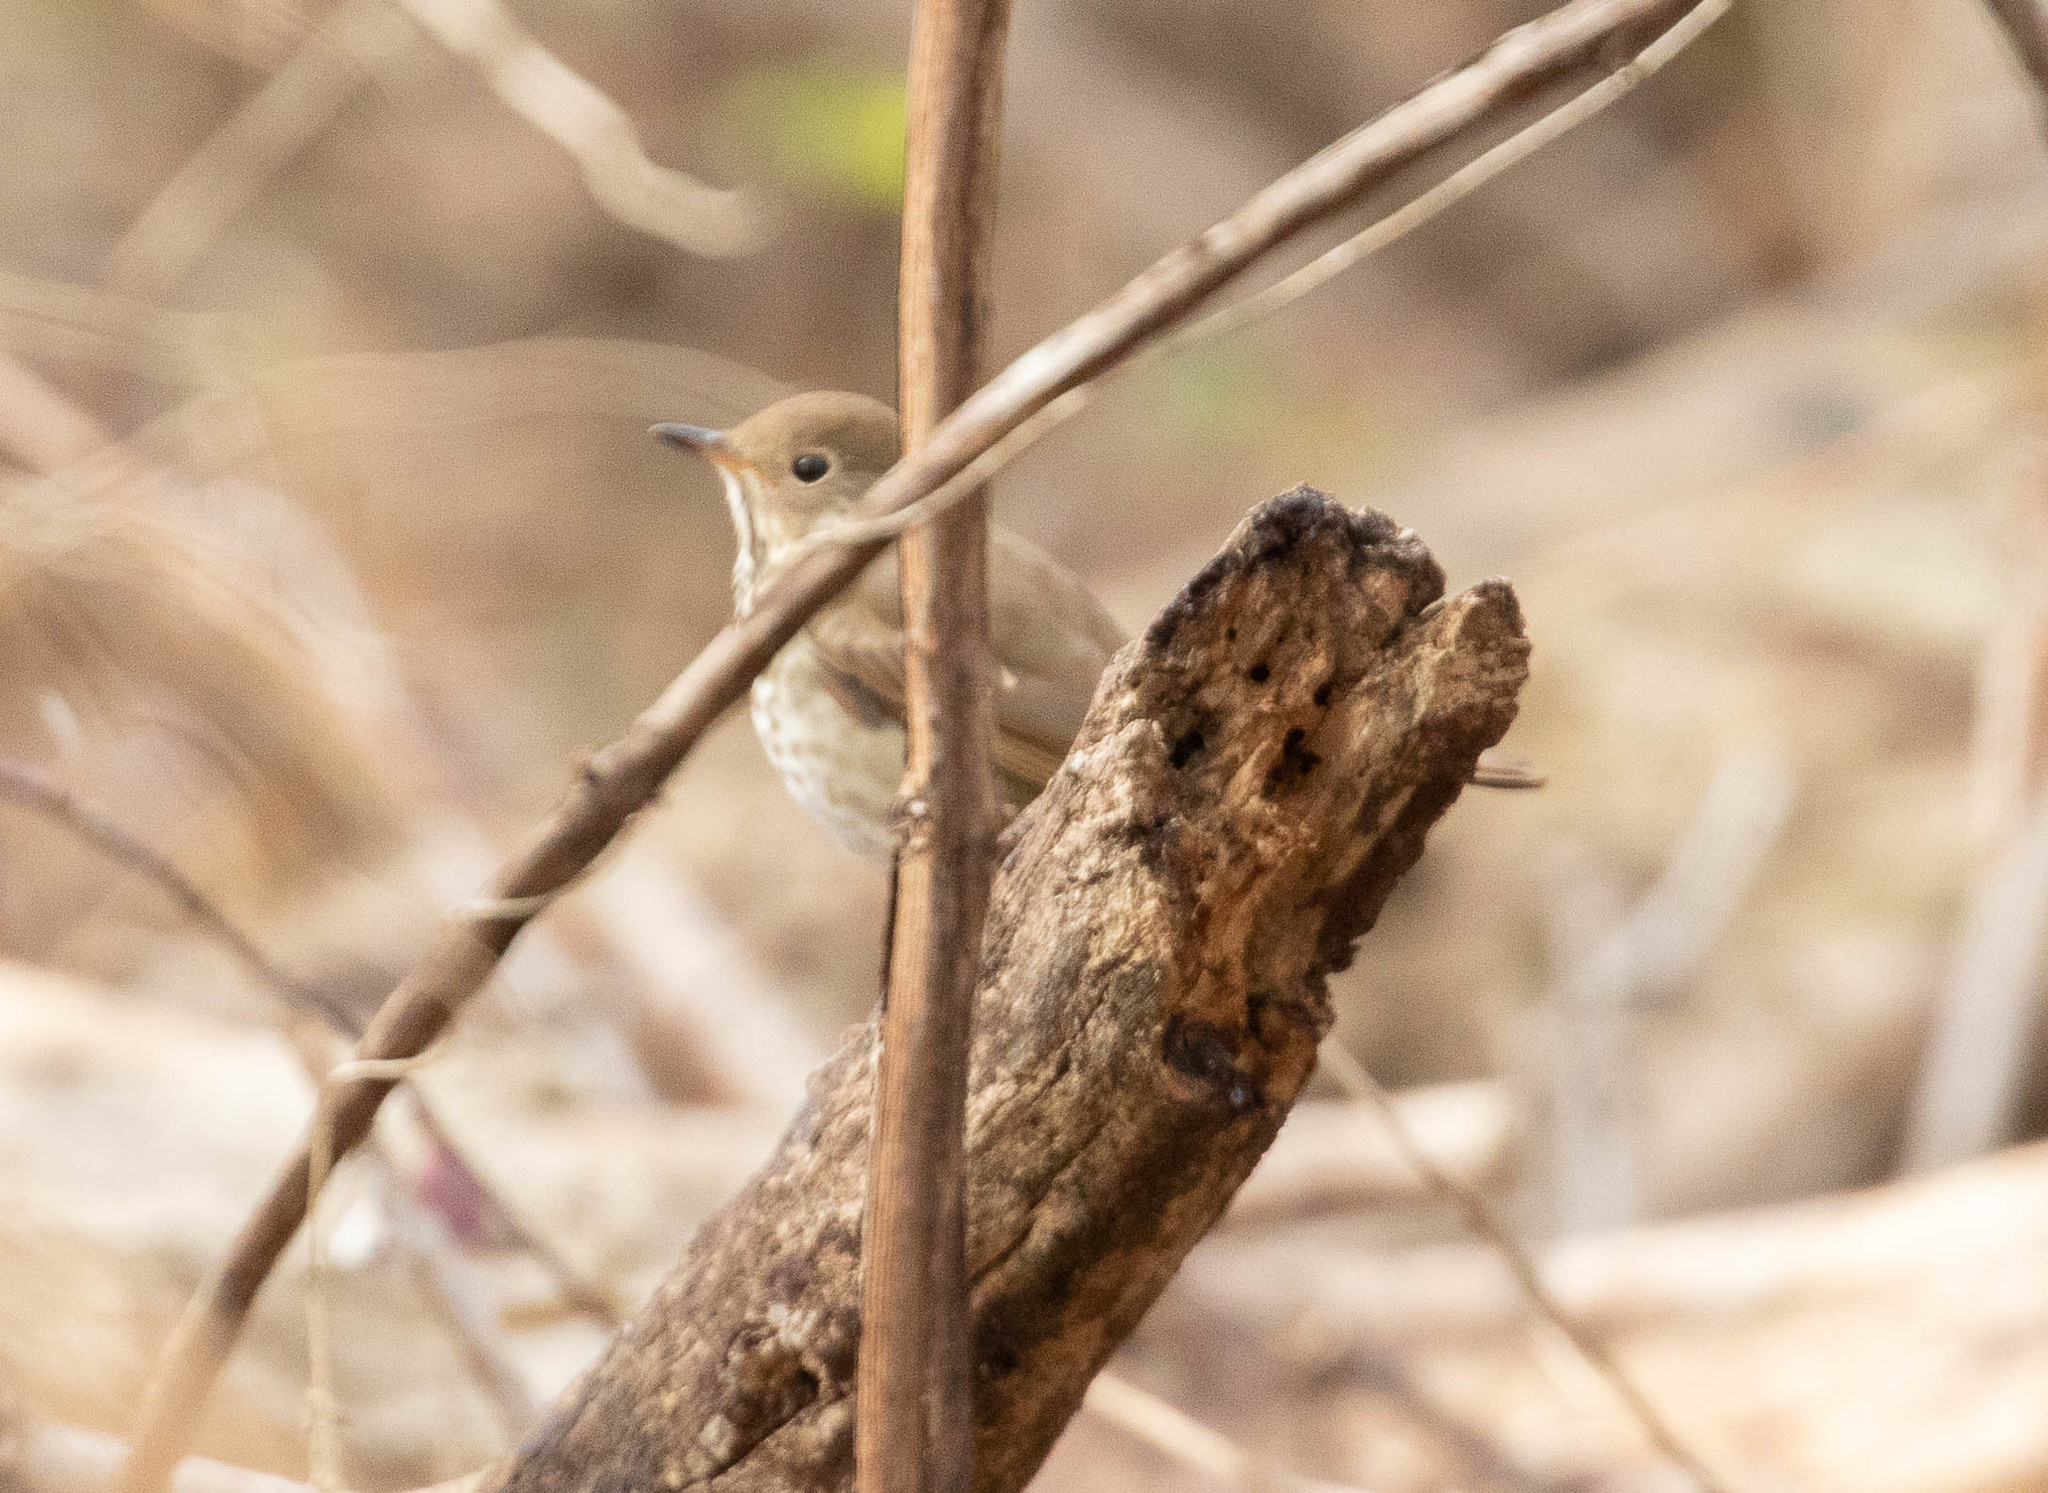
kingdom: Animalia
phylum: Chordata
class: Aves
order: Passeriformes
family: Turdidae
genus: Catharus
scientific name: Catharus guttatus
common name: Hermit thrush
